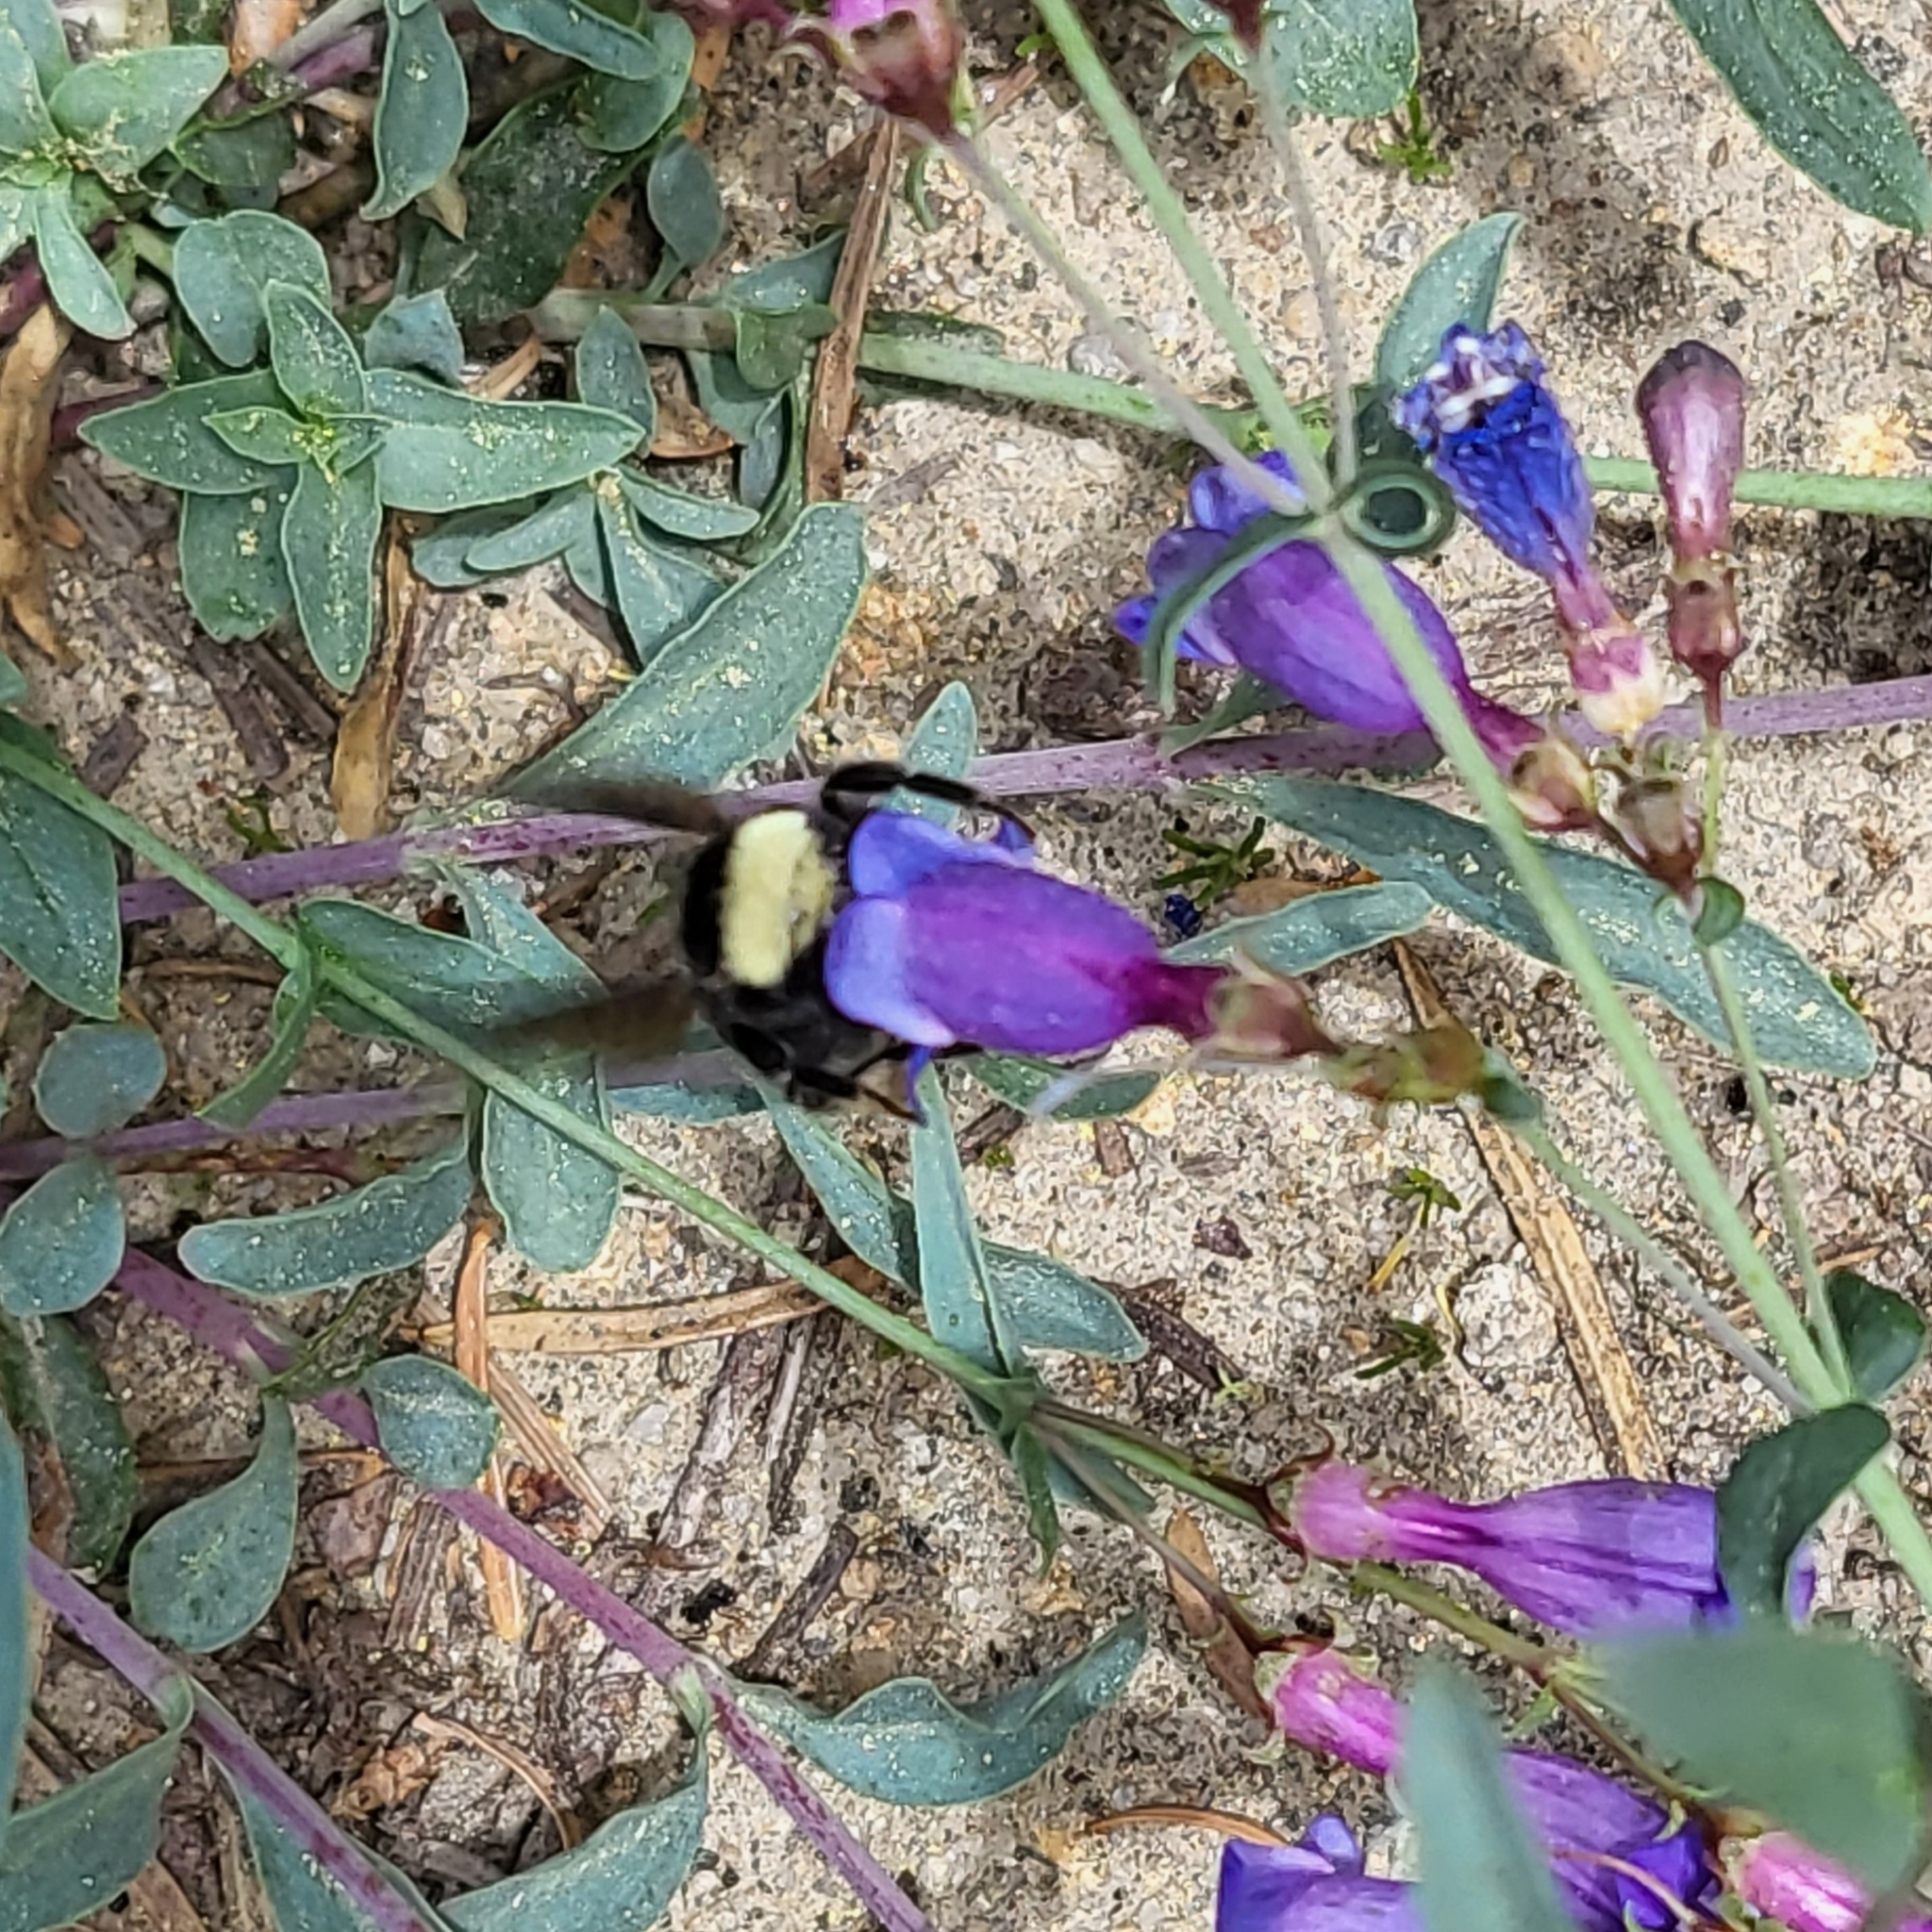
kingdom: Animalia
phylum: Arthropoda
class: Insecta
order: Hymenoptera
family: Apidae
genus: Bombus
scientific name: Bombus vosnesenskii
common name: Vosnesensky bumble bee
